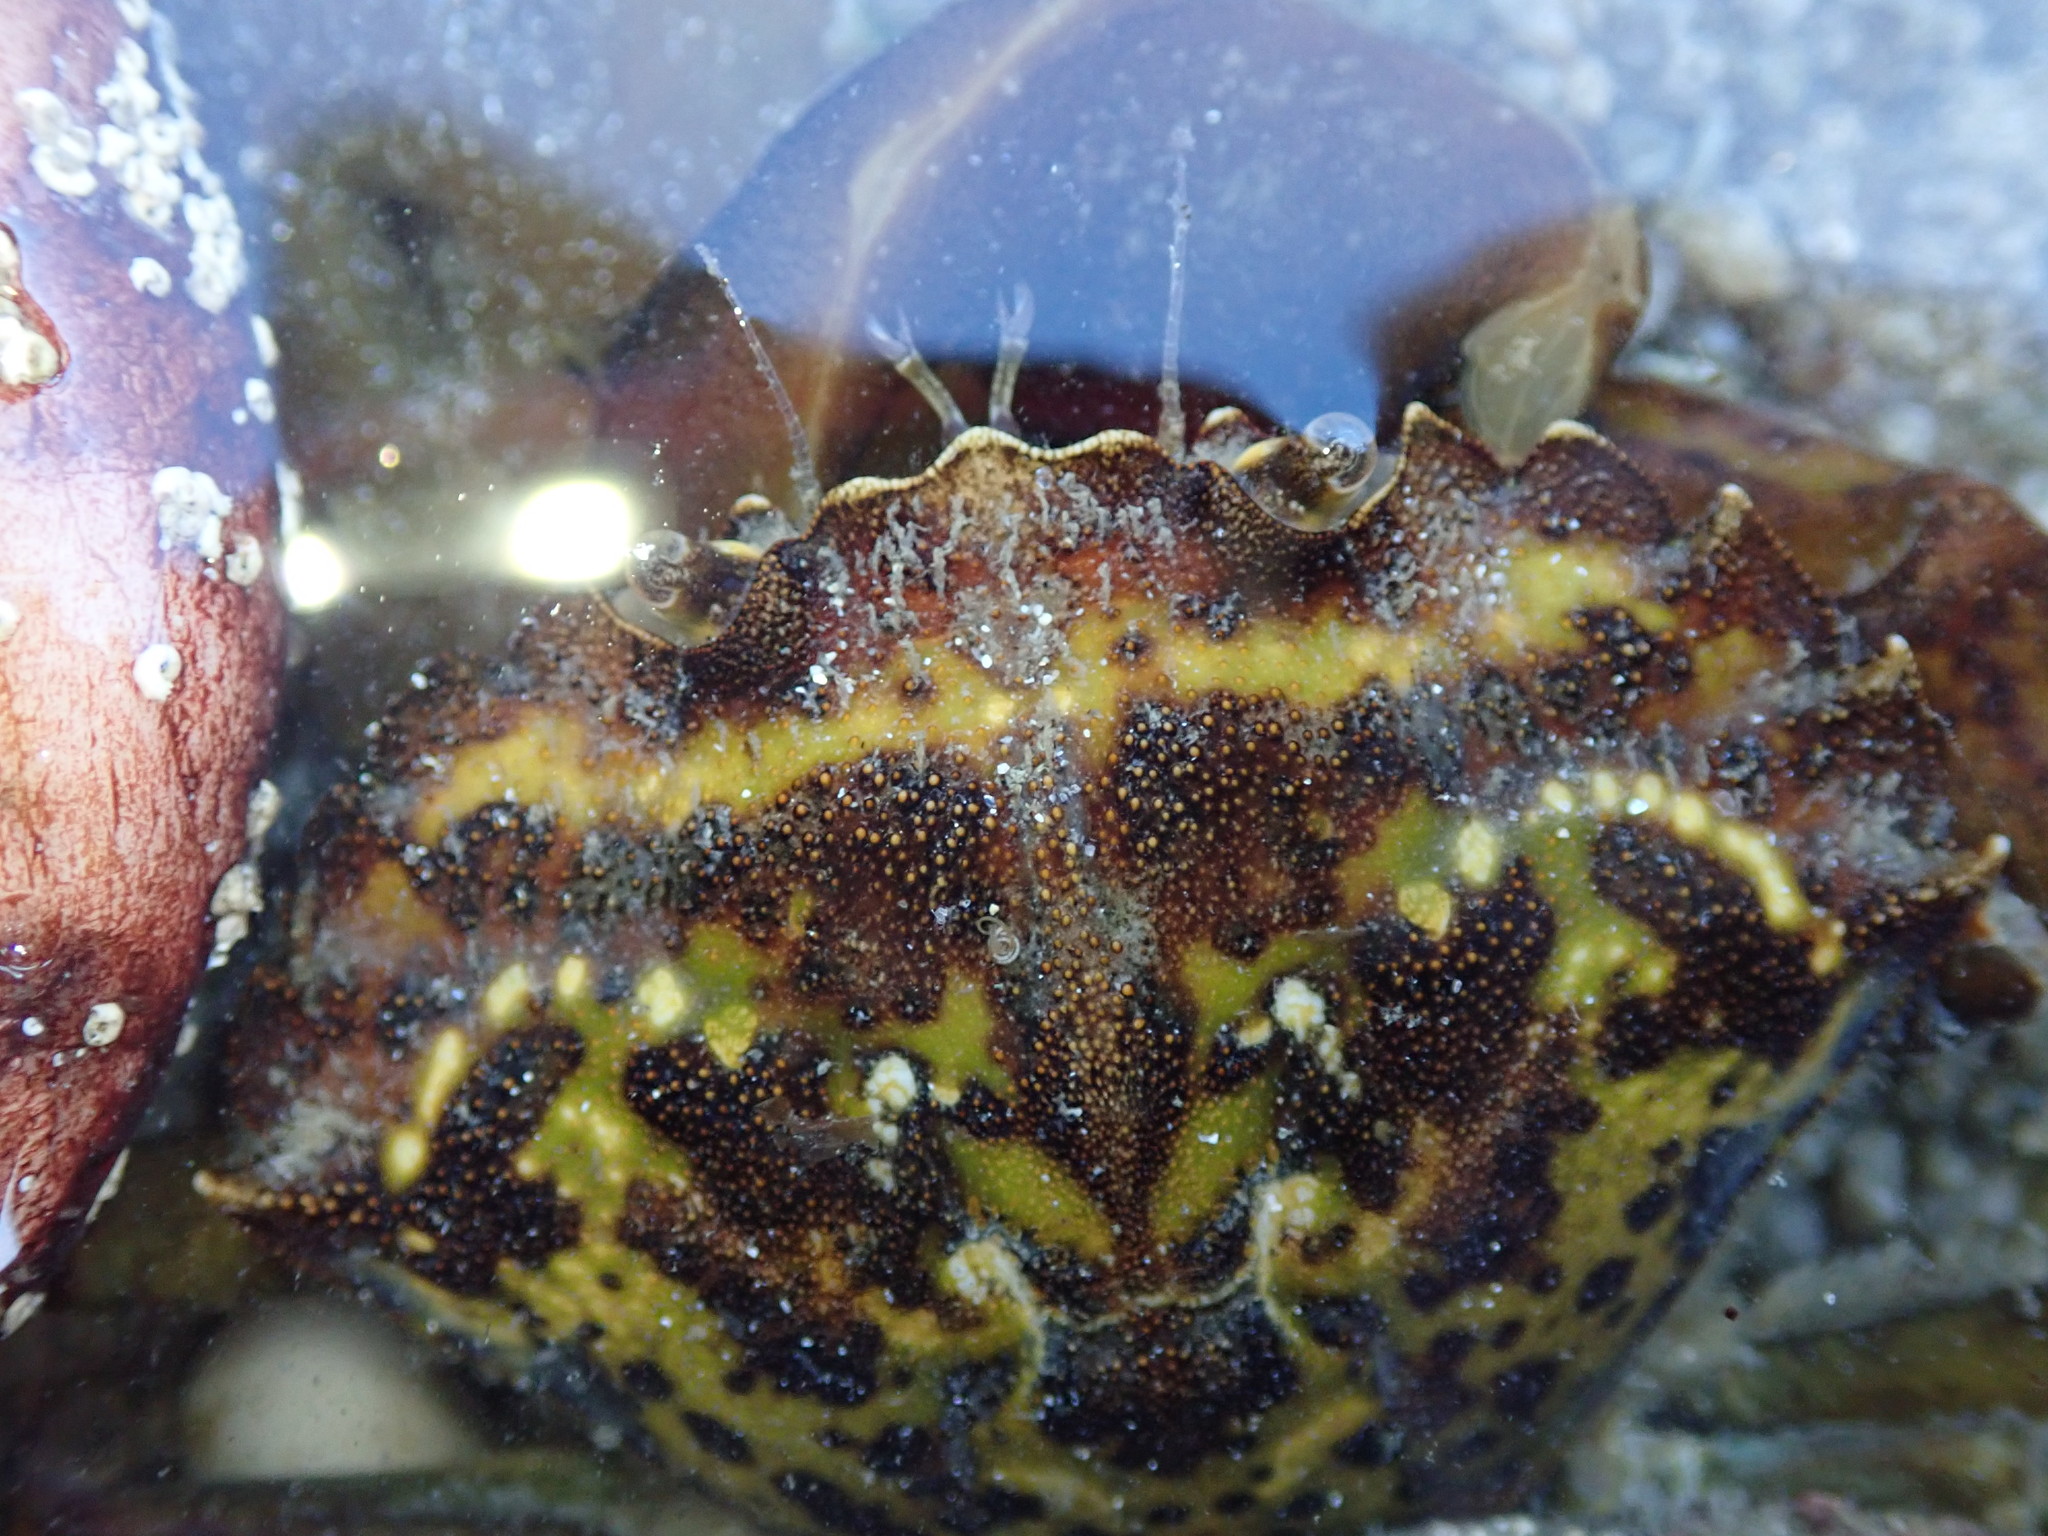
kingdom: Animalia
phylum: Arthropoda
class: Malacostraca
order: Decapoda
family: Carcinidae
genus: Carcinus
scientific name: Carcinus maenas
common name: European green crab
